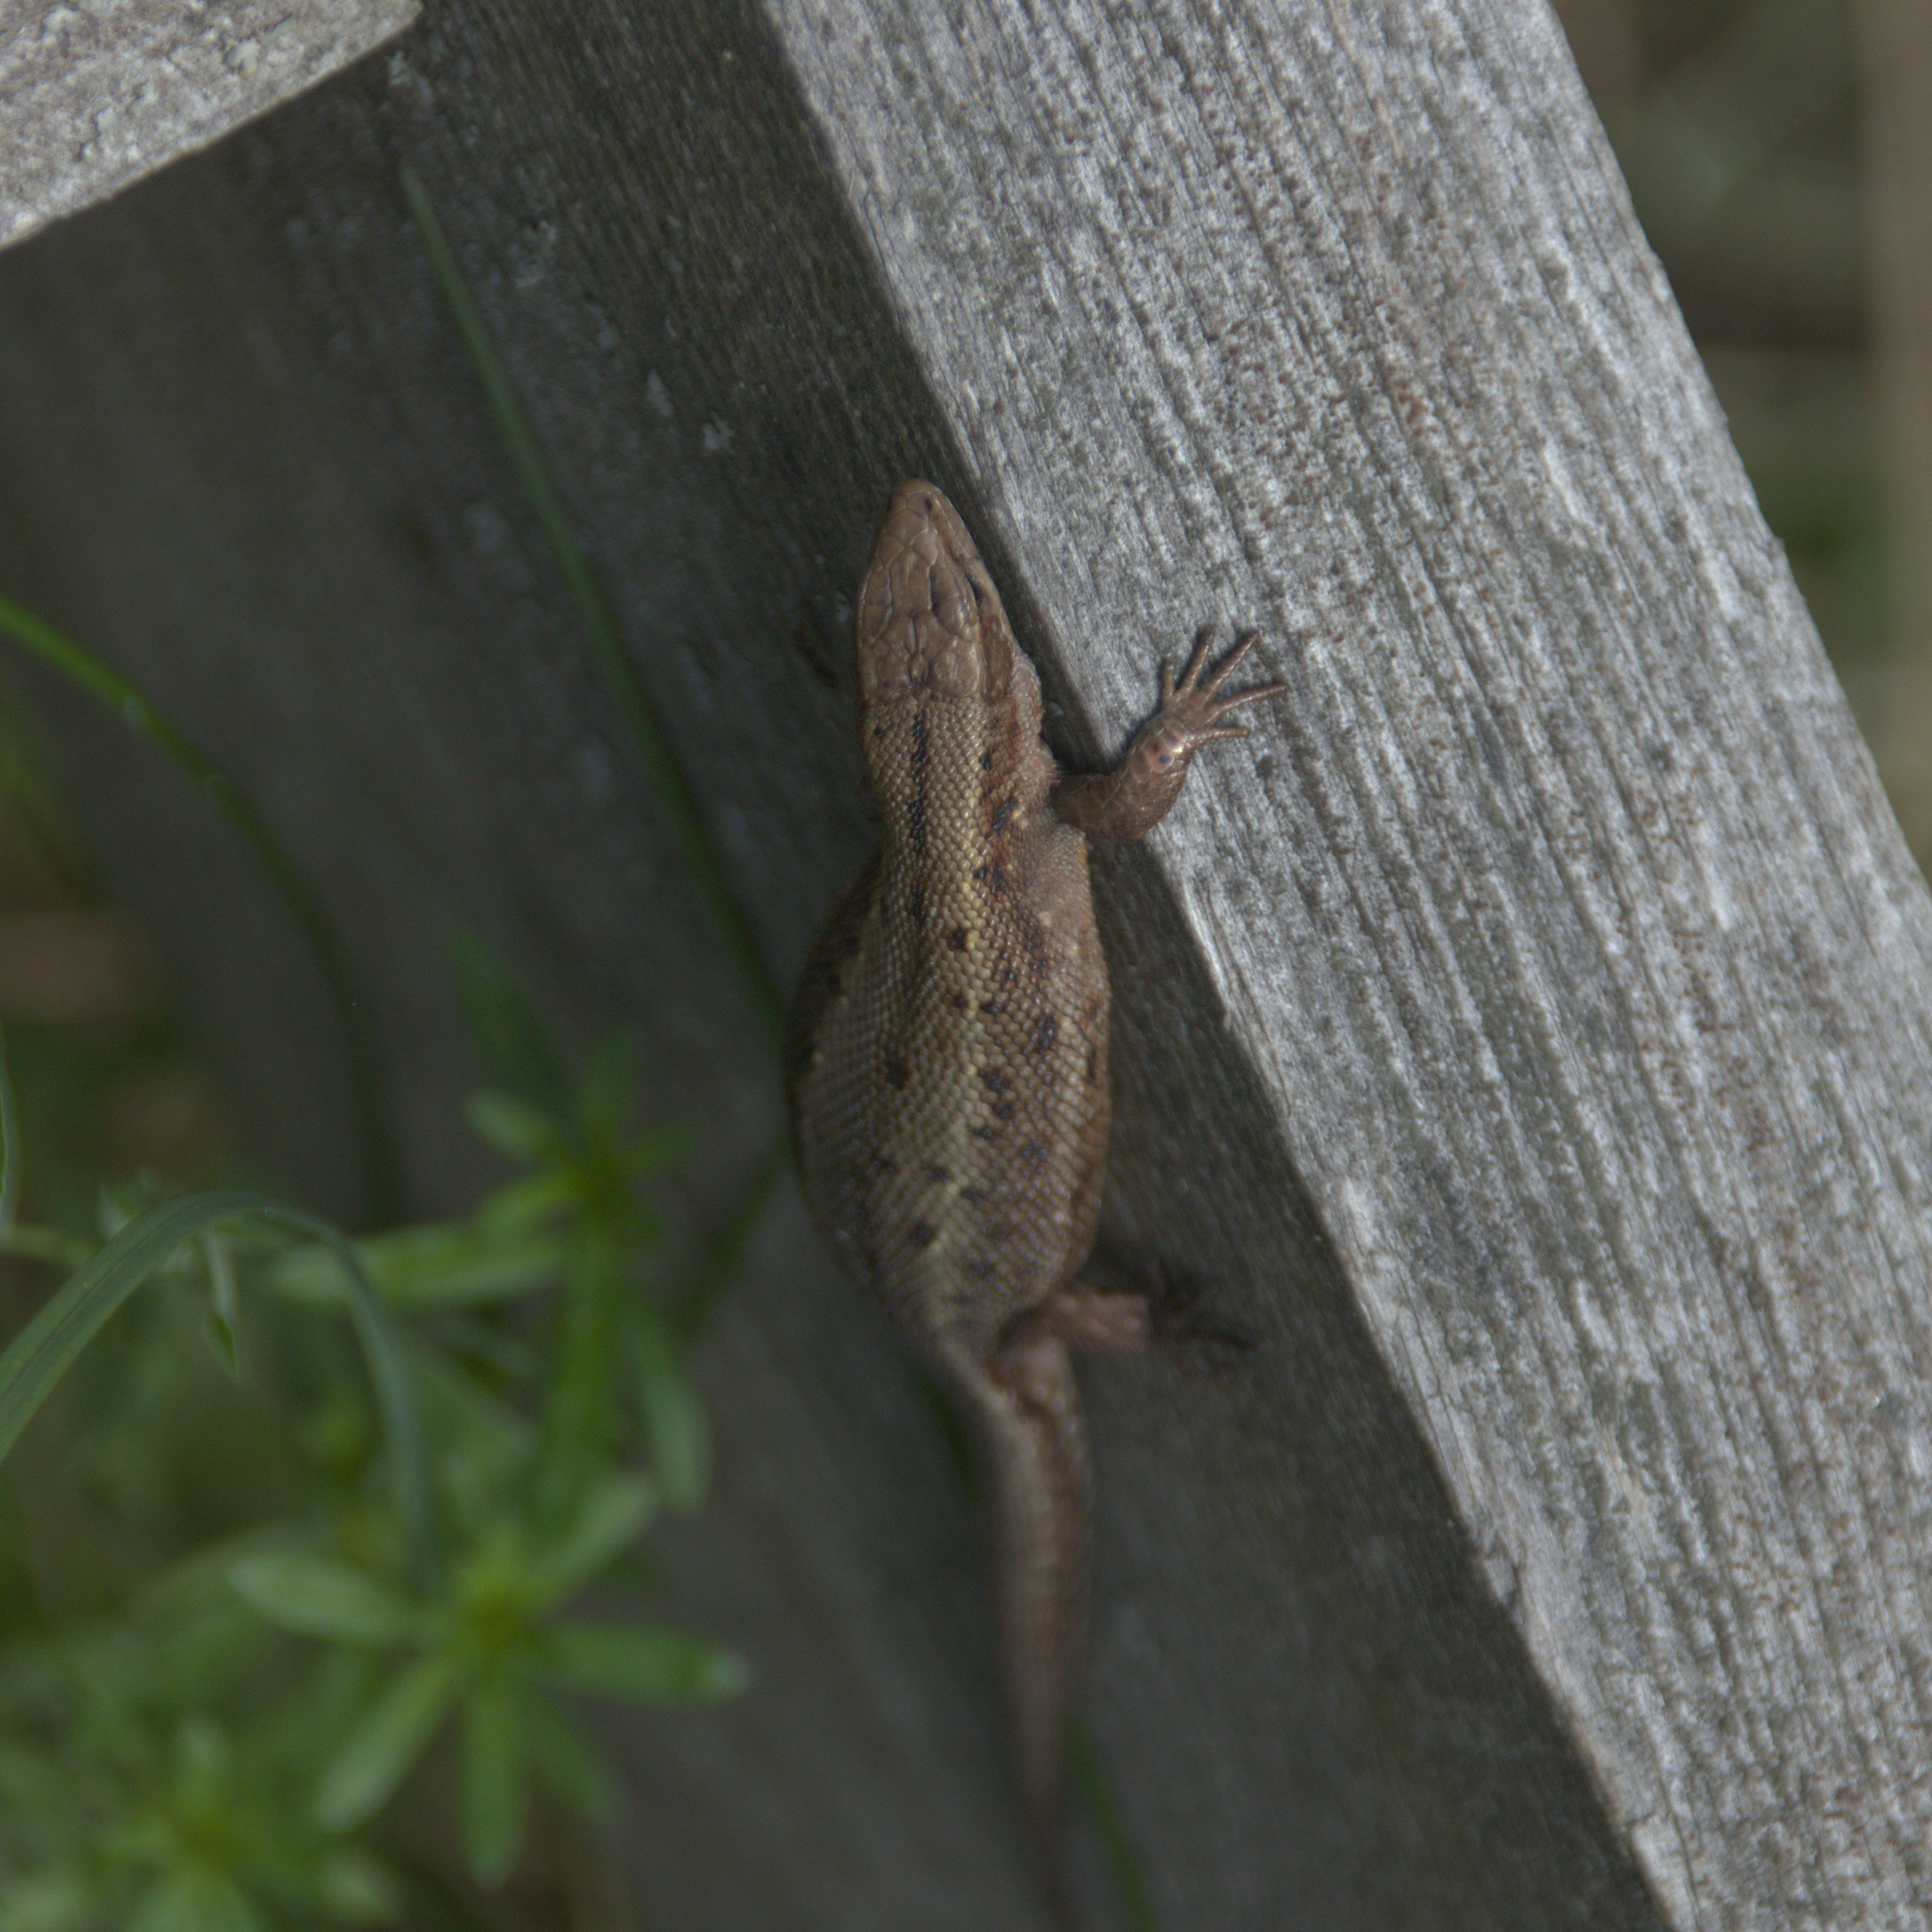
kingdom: Animalia
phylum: Chordata
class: Squamata
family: Lacertidae
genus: Zootoca
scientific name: Zootoca vivipara
